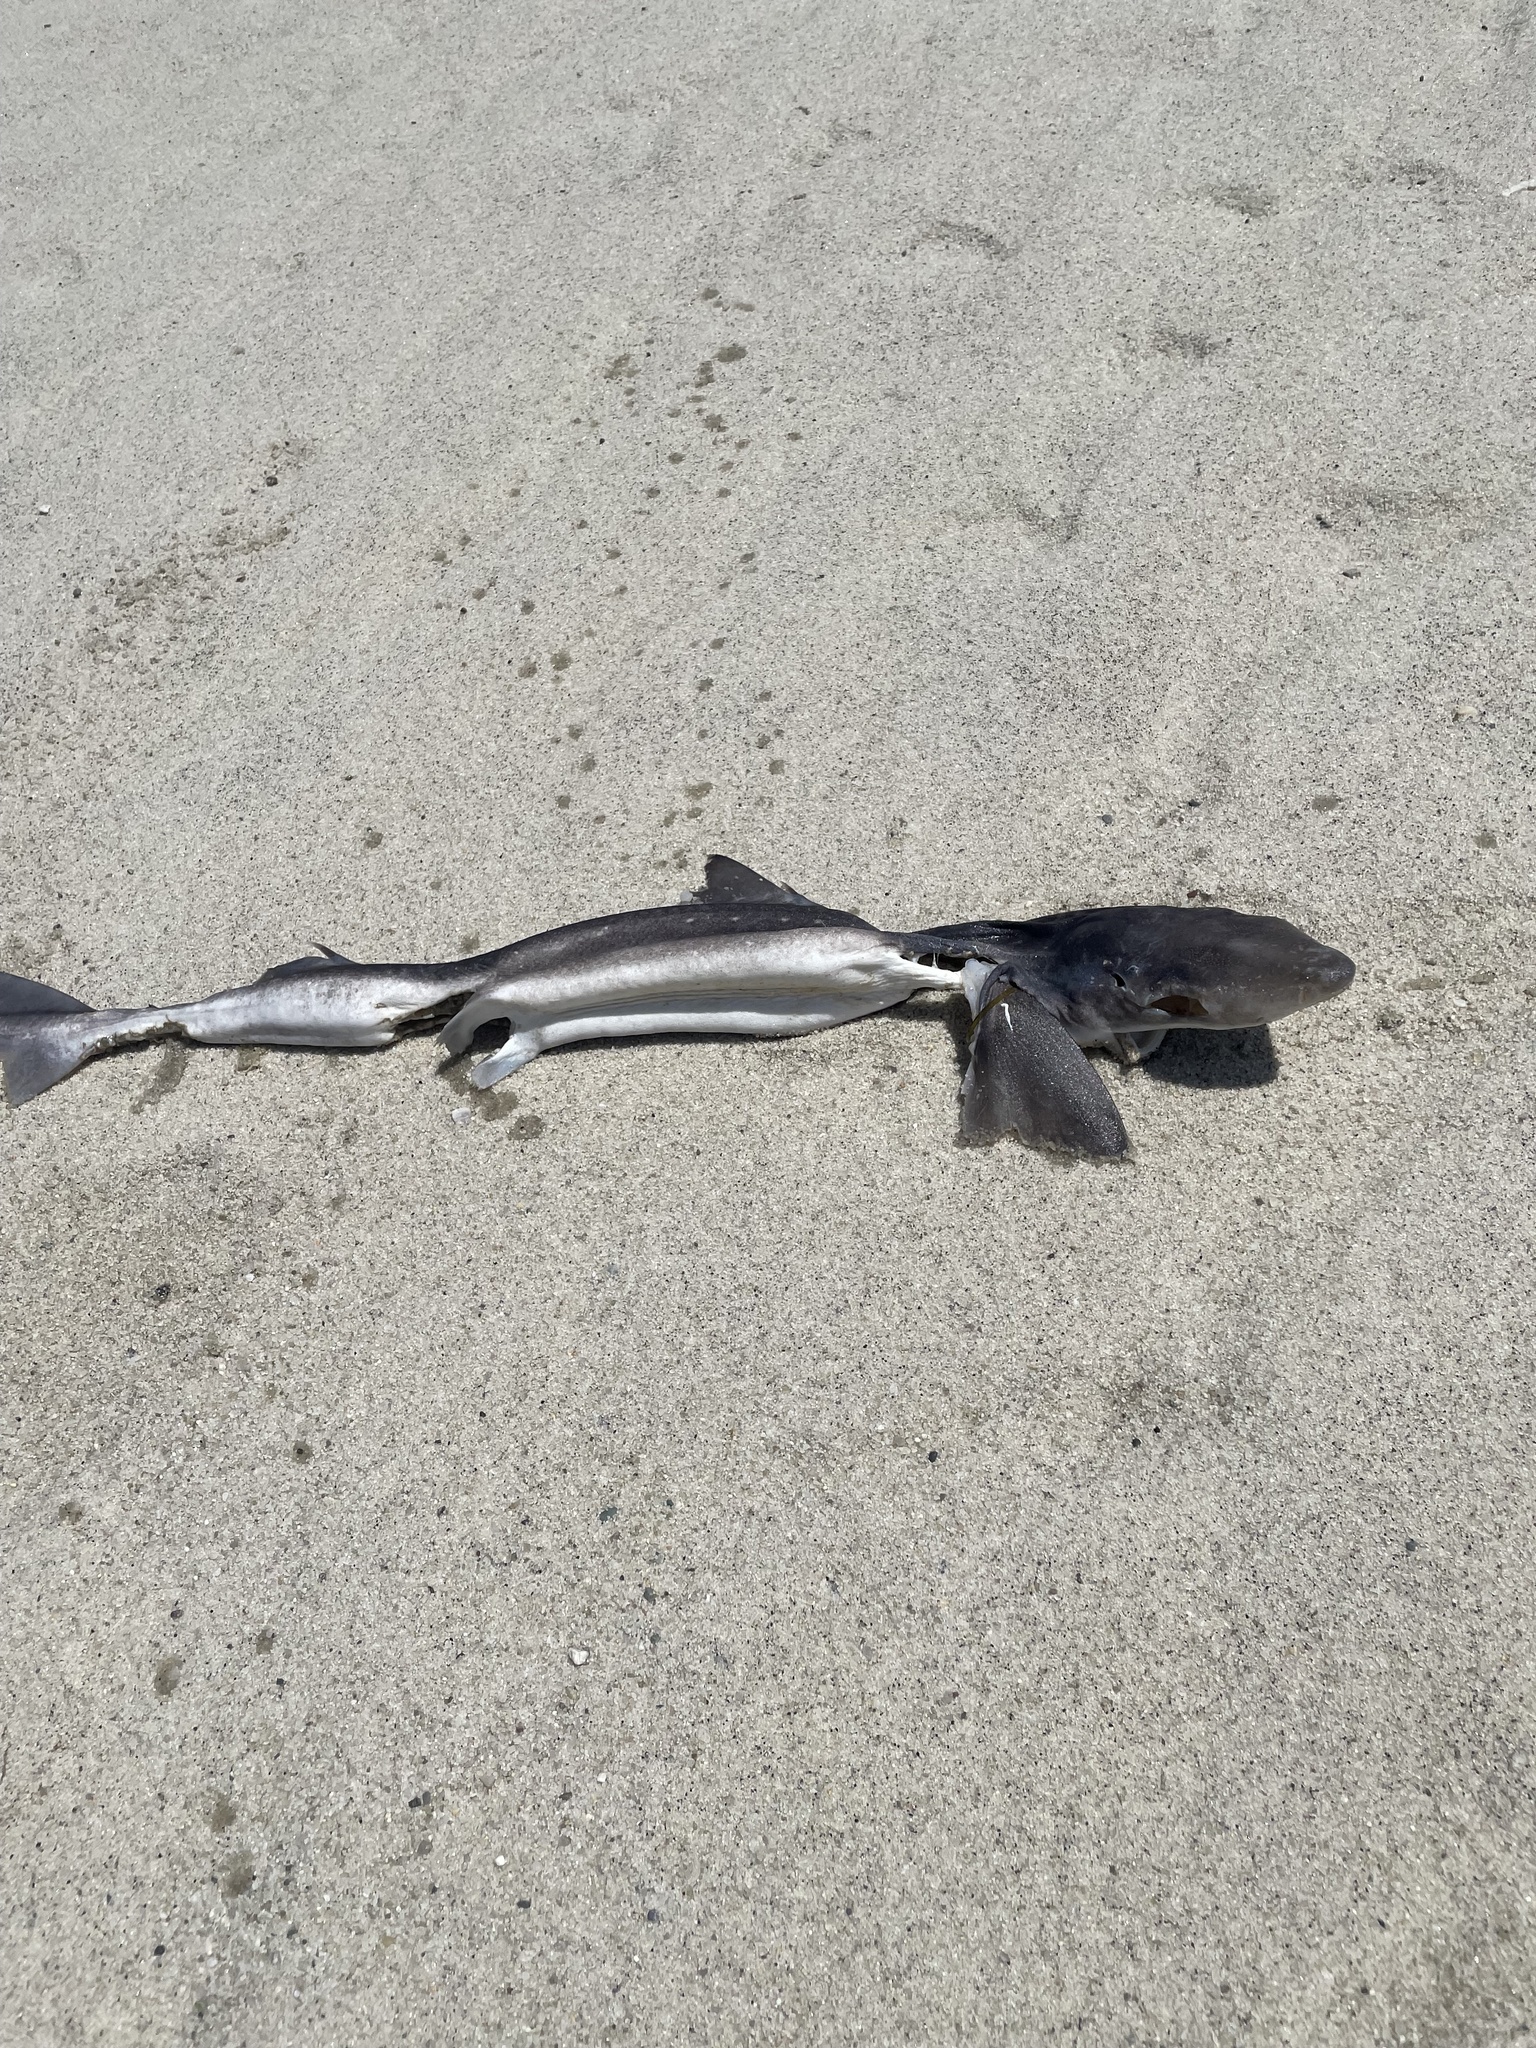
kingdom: Animalia
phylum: Chordata
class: Elasmobranchii
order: Squaliformes
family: Squalidae
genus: Squalus
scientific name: Squalus acanthias
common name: Spurdog
